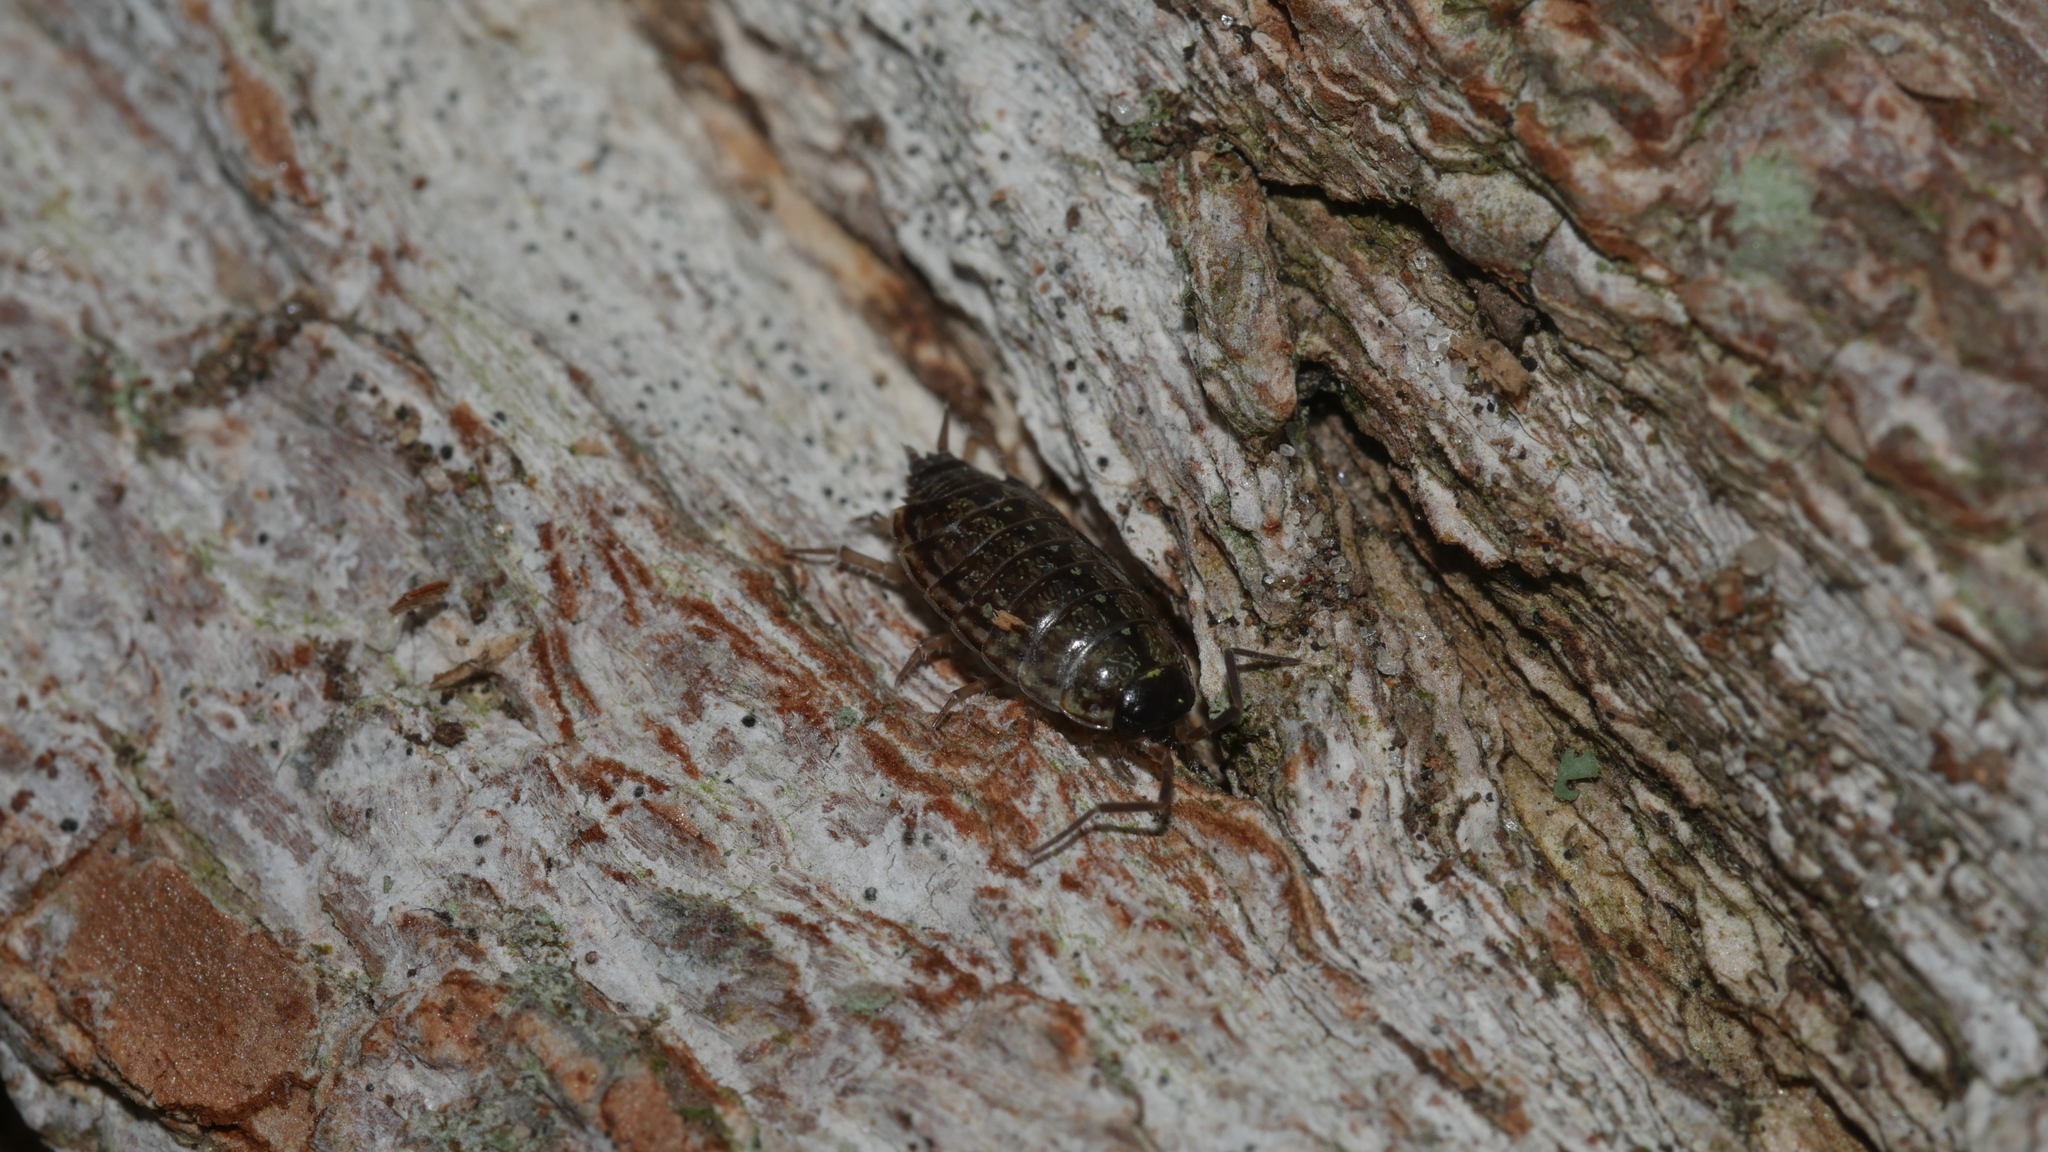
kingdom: Animalia
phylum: Arthropoda
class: Malacostraca
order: Isopoda
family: Philosciidae
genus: Philoscia
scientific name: Philoscia muscorum
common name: Common striped woodlouse
